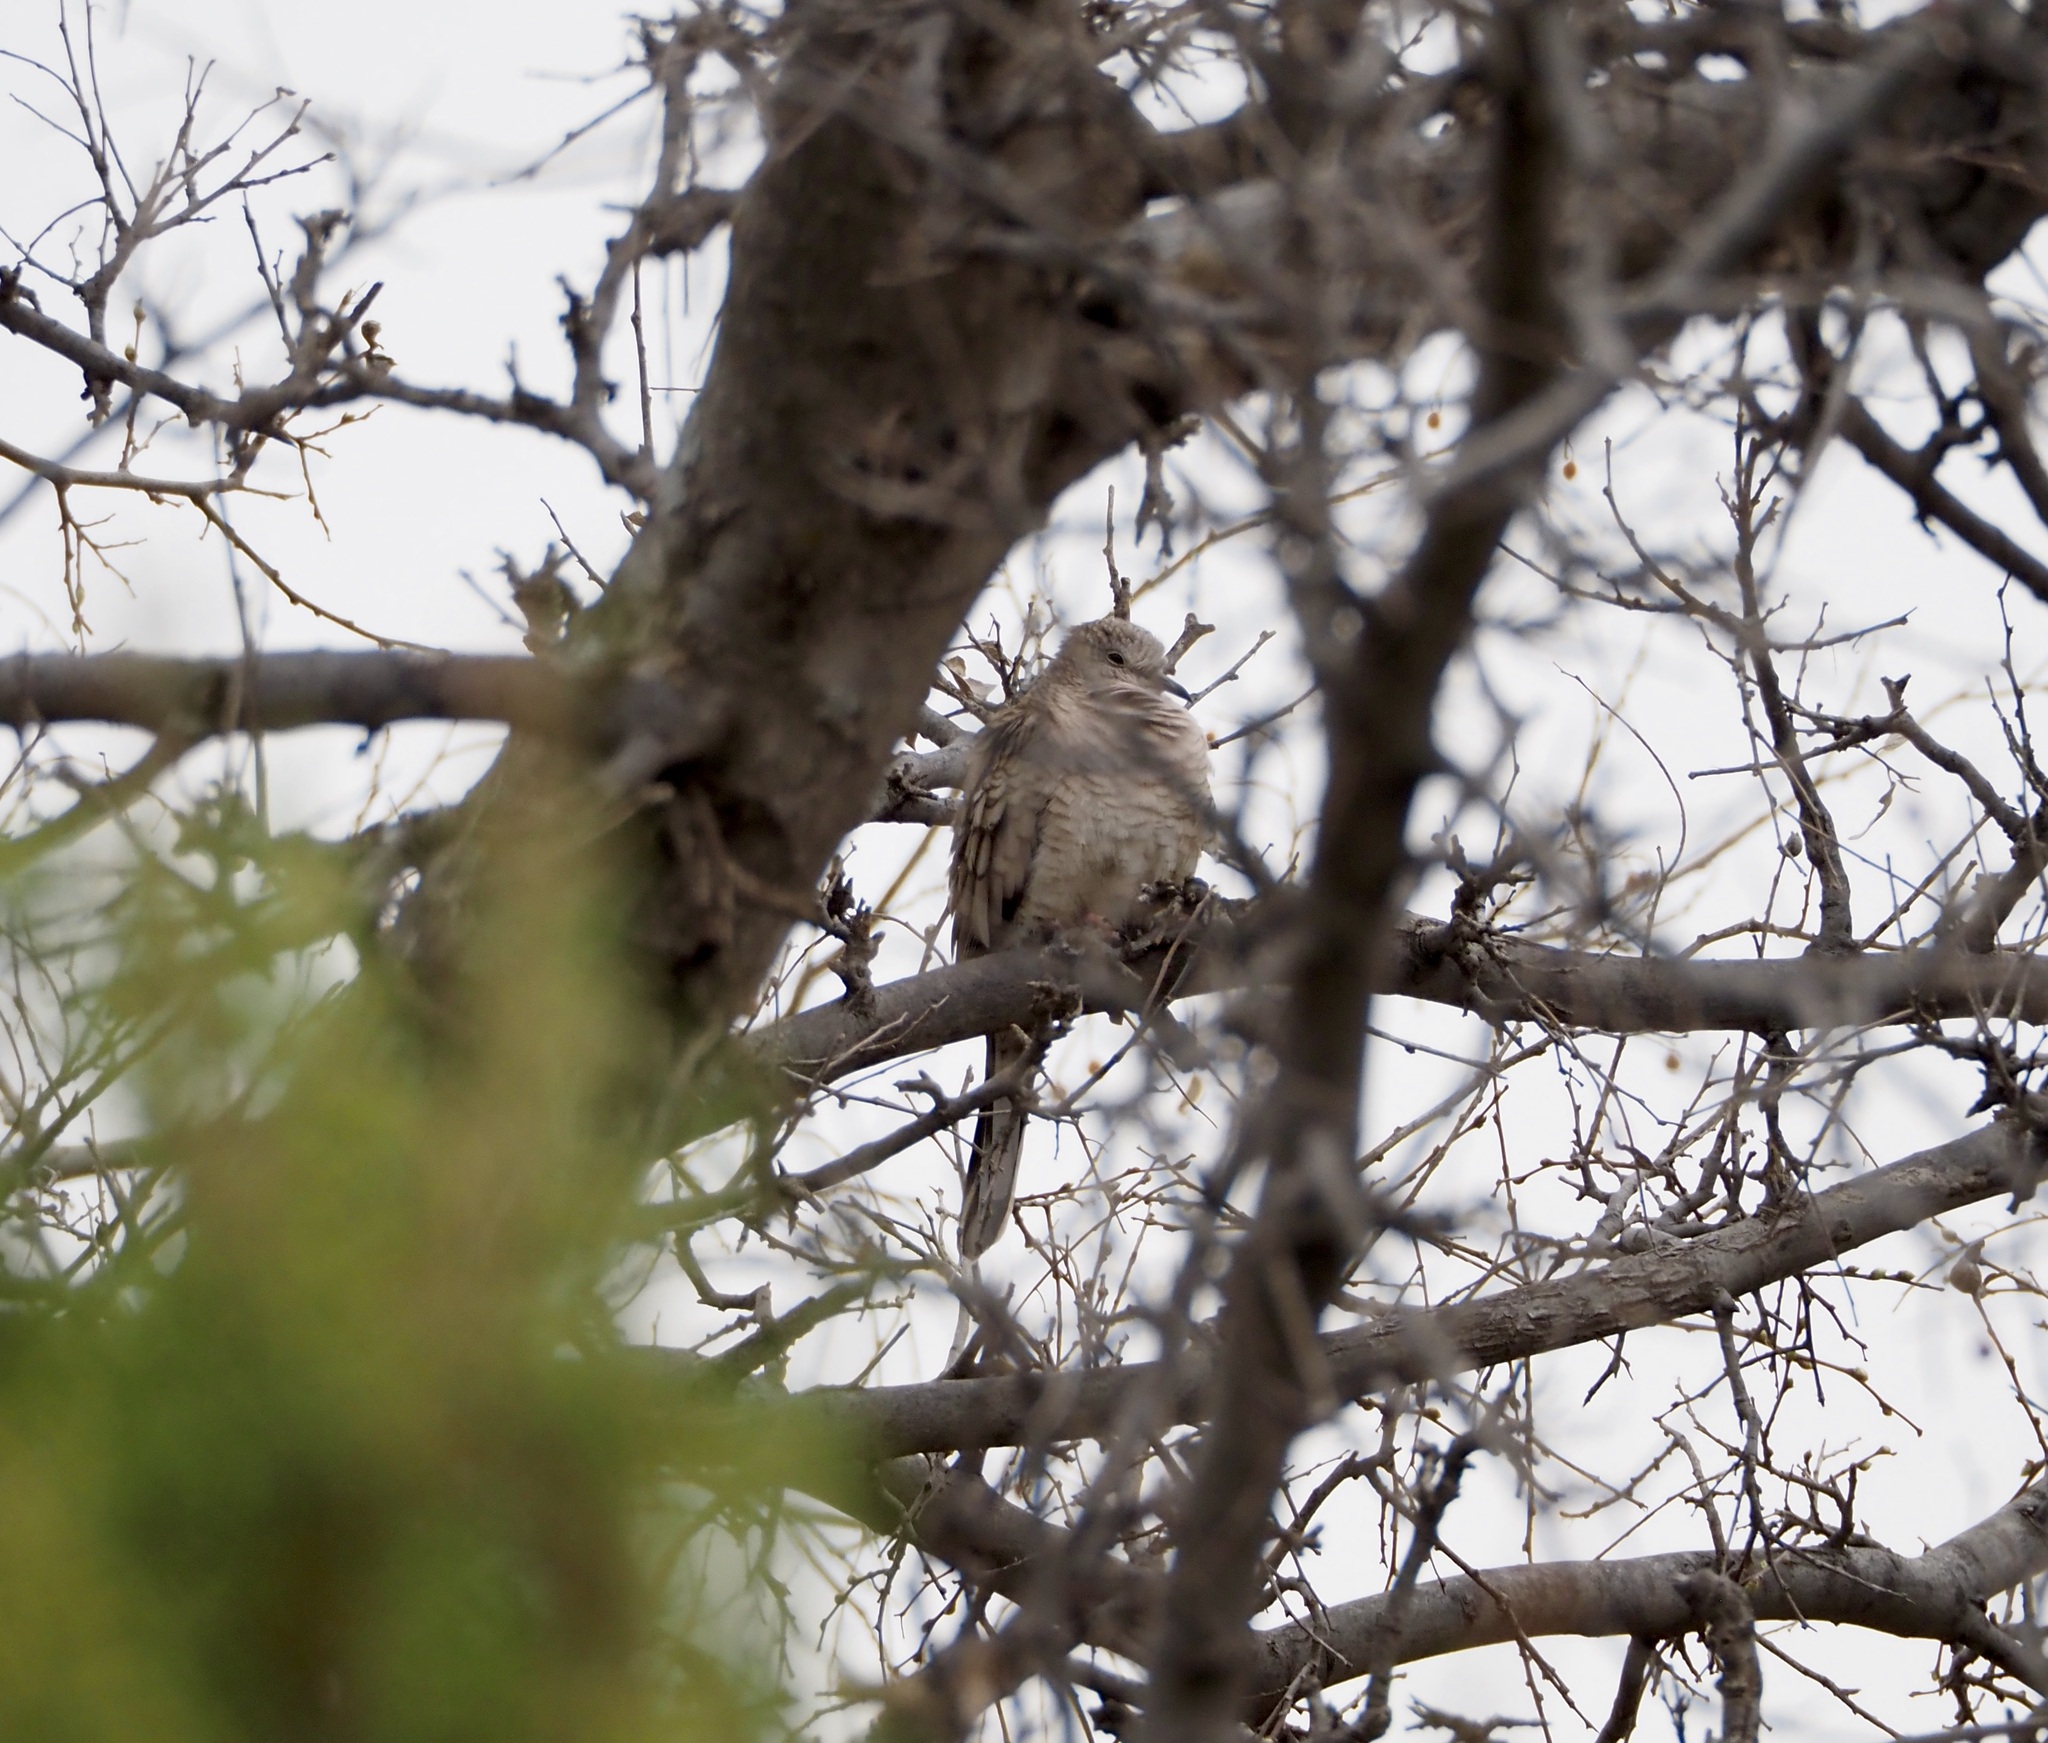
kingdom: Animalia
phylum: Chordata
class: Aves
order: Columbiformes
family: Columbidae
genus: Columbina
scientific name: Columbina inca
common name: Inca dove
